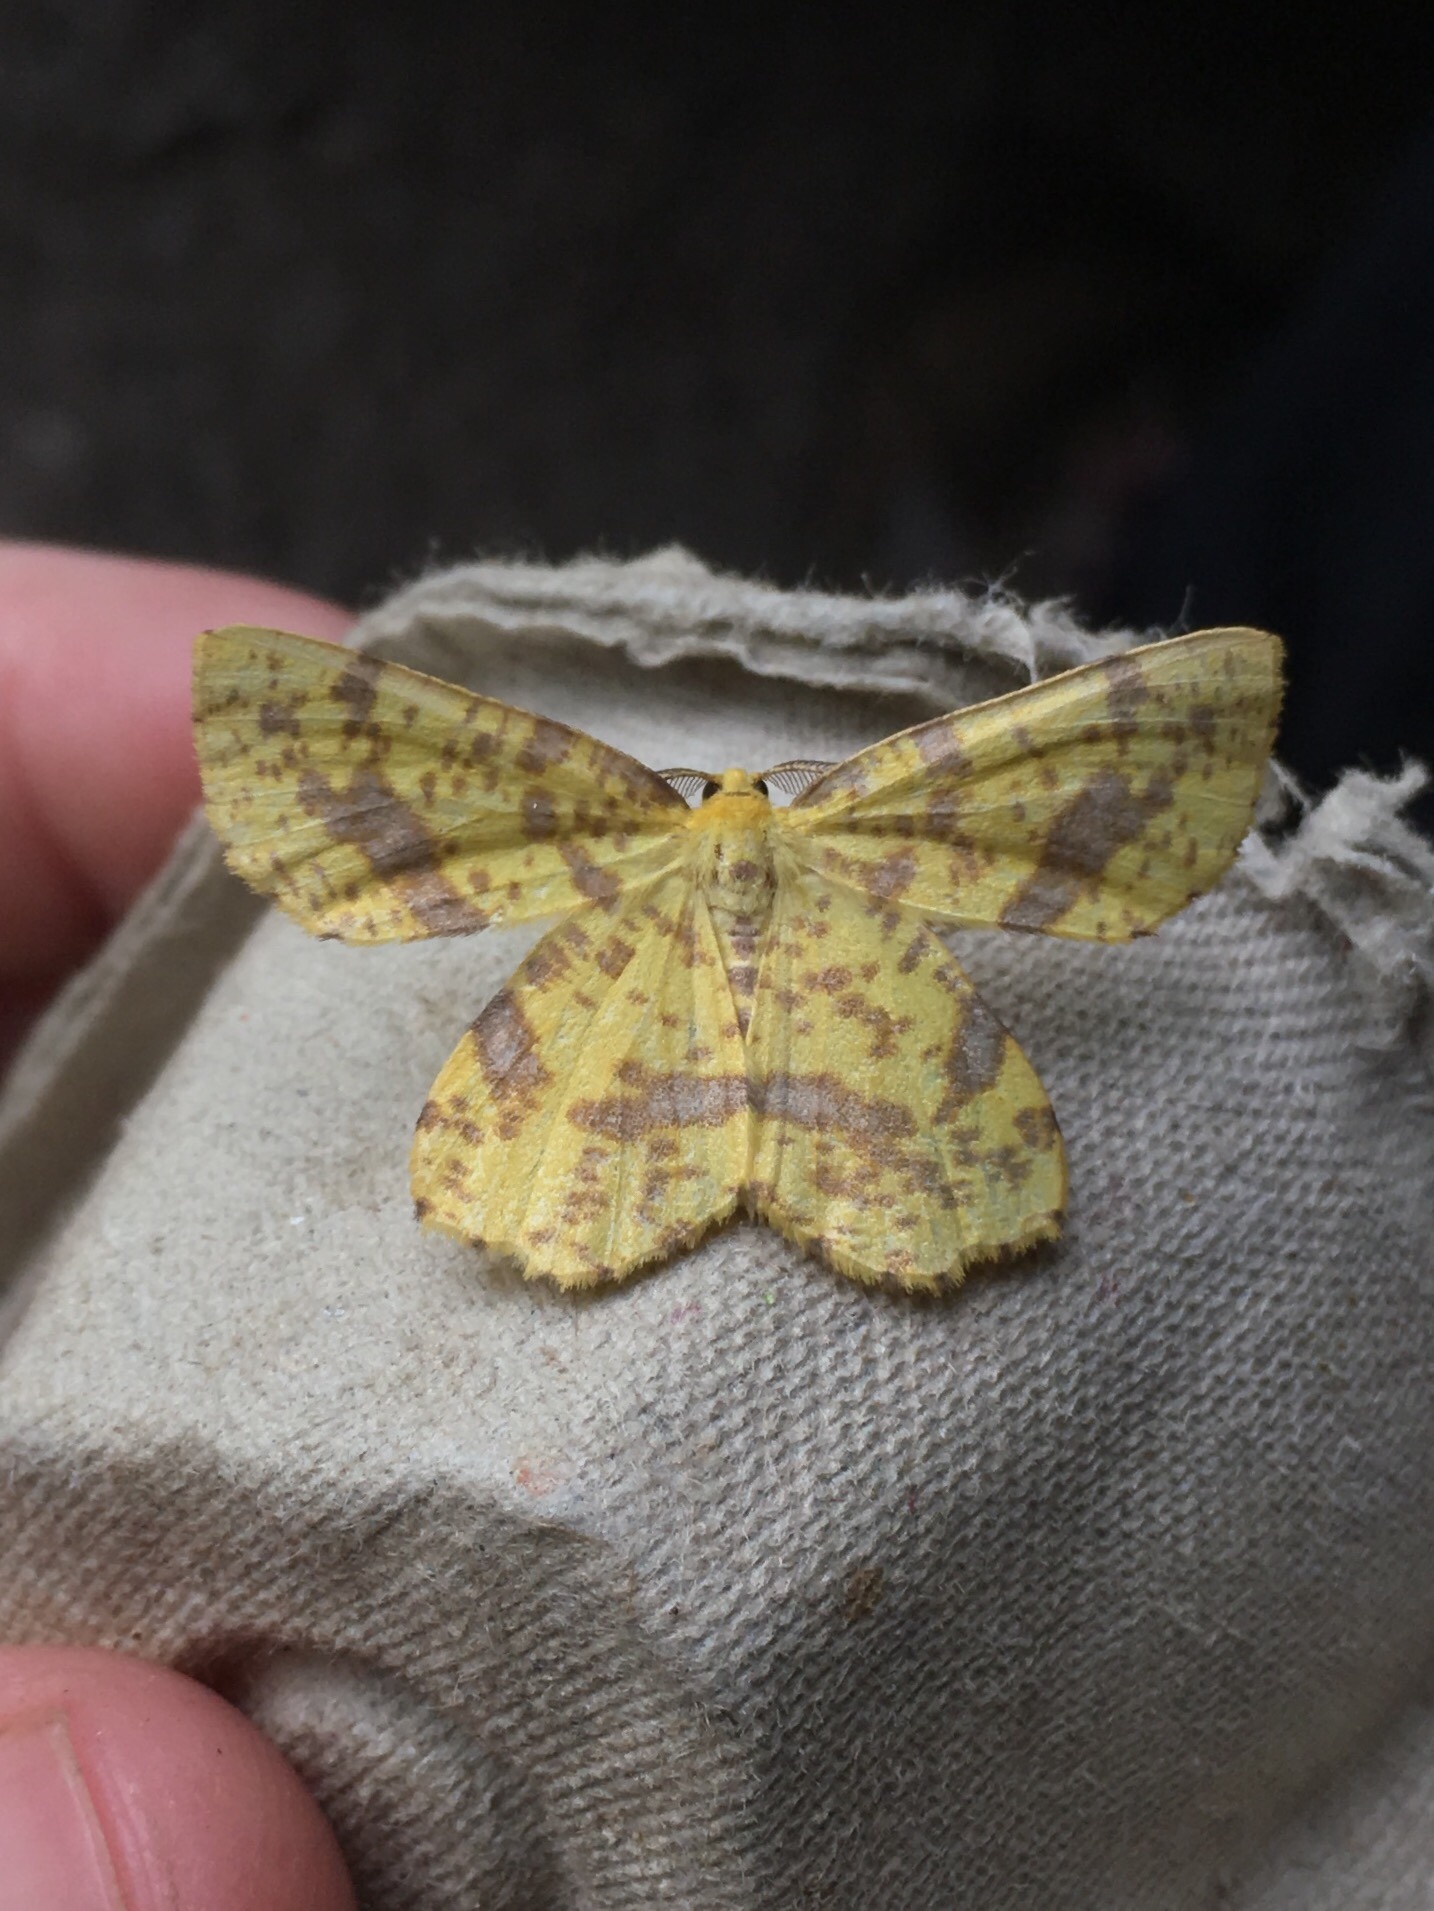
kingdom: Animalia
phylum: Arthropoda
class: Insecta
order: Lepidoptera
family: Geometridae
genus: Xanthotype
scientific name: Xanthotype
